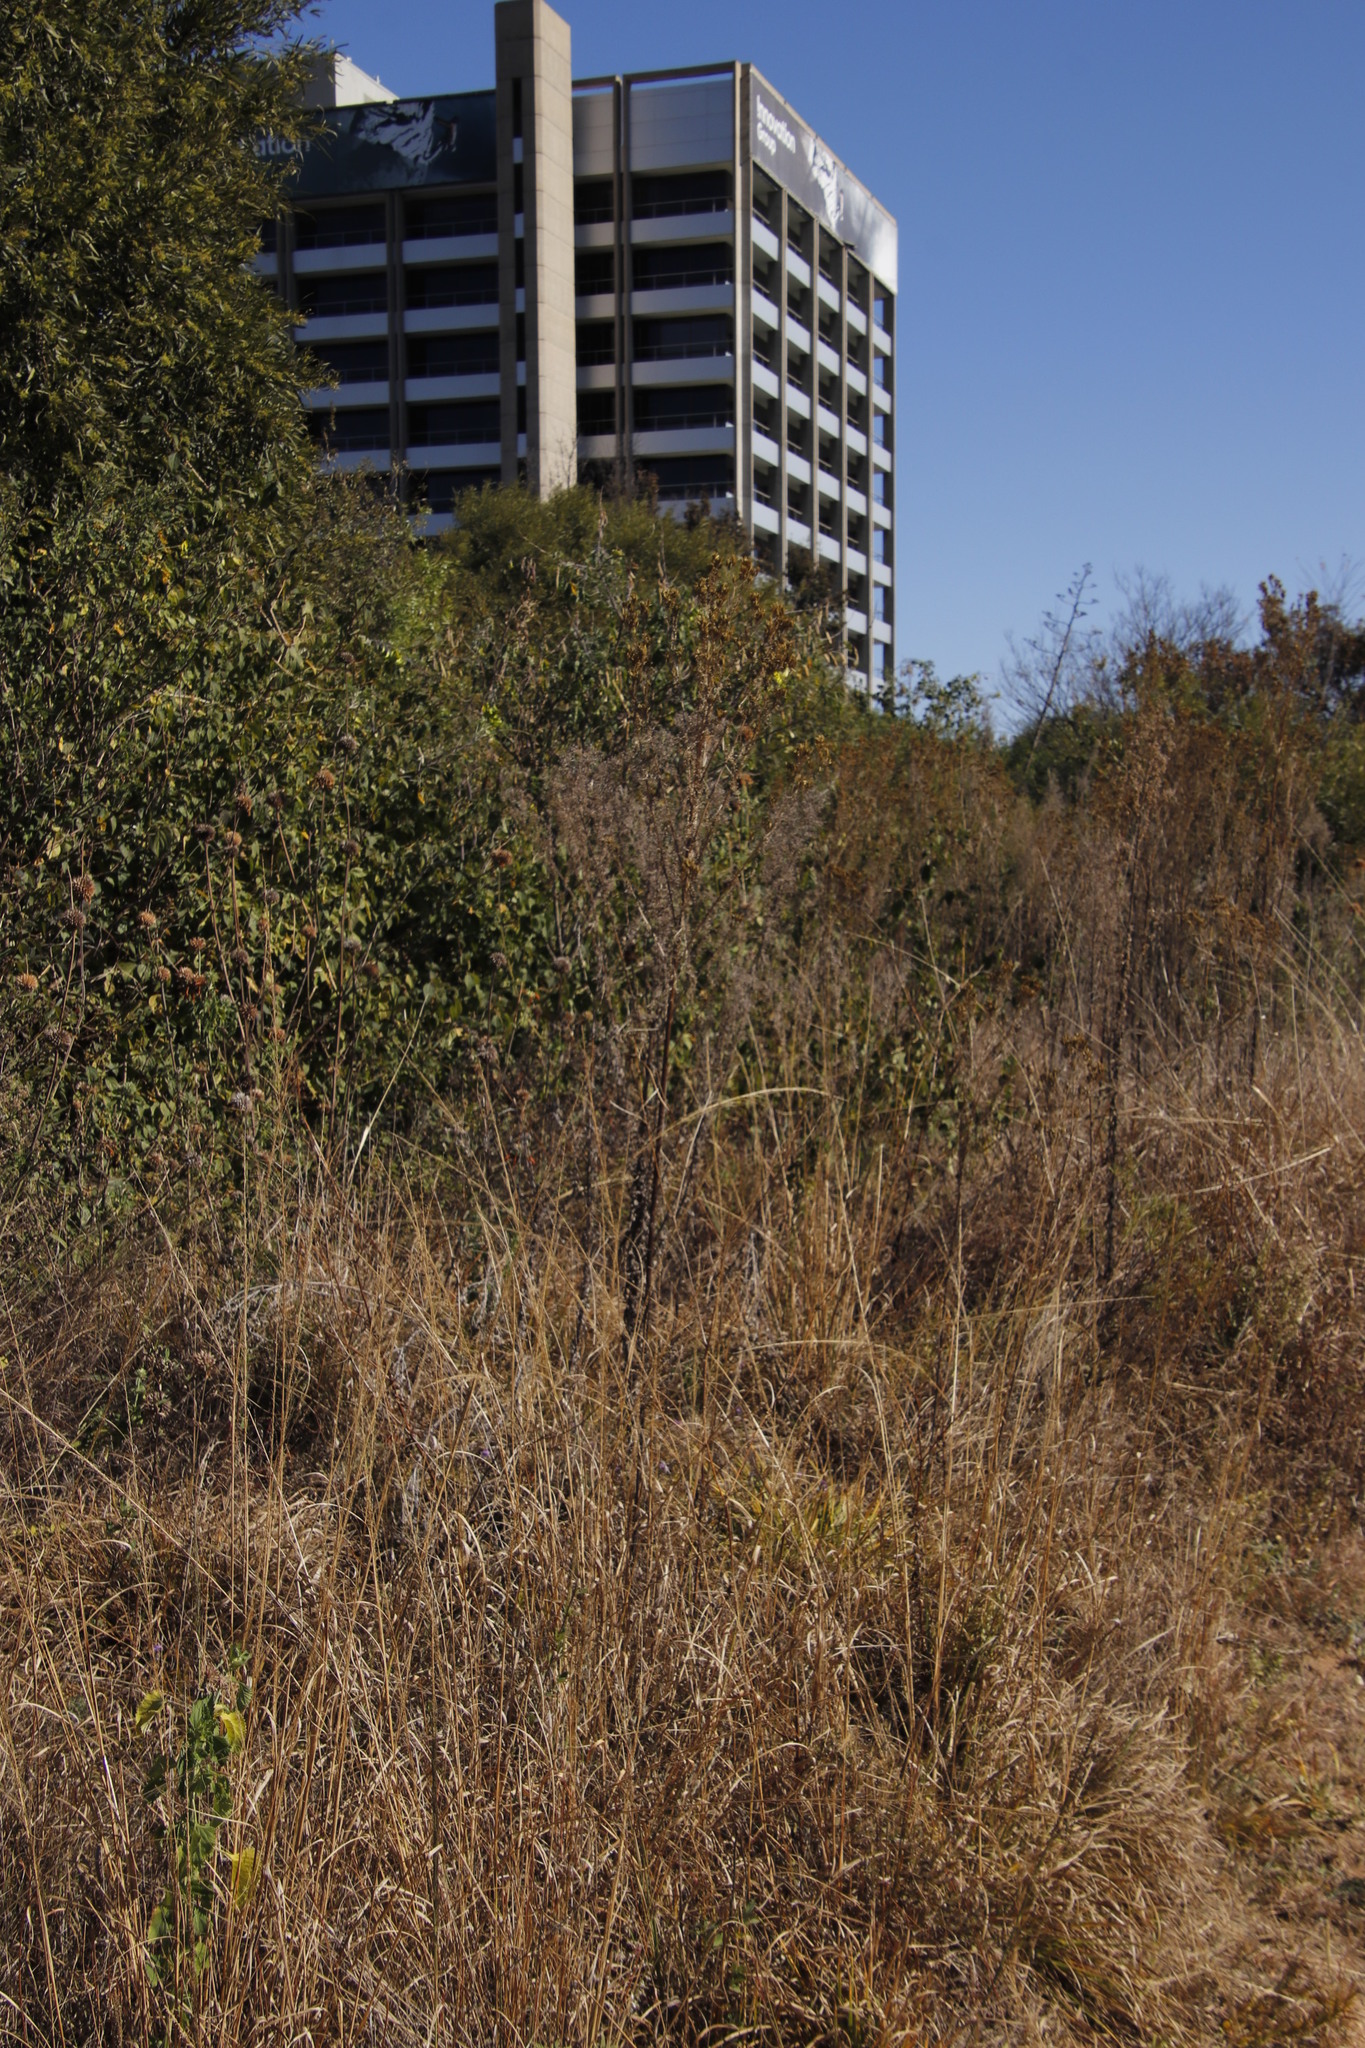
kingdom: Plantae
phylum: Tracheophyta
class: Magnoliopsida
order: Asterales
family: Asteraceae
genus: Tagetes
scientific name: Tagetes minuta
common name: Muster john henry
